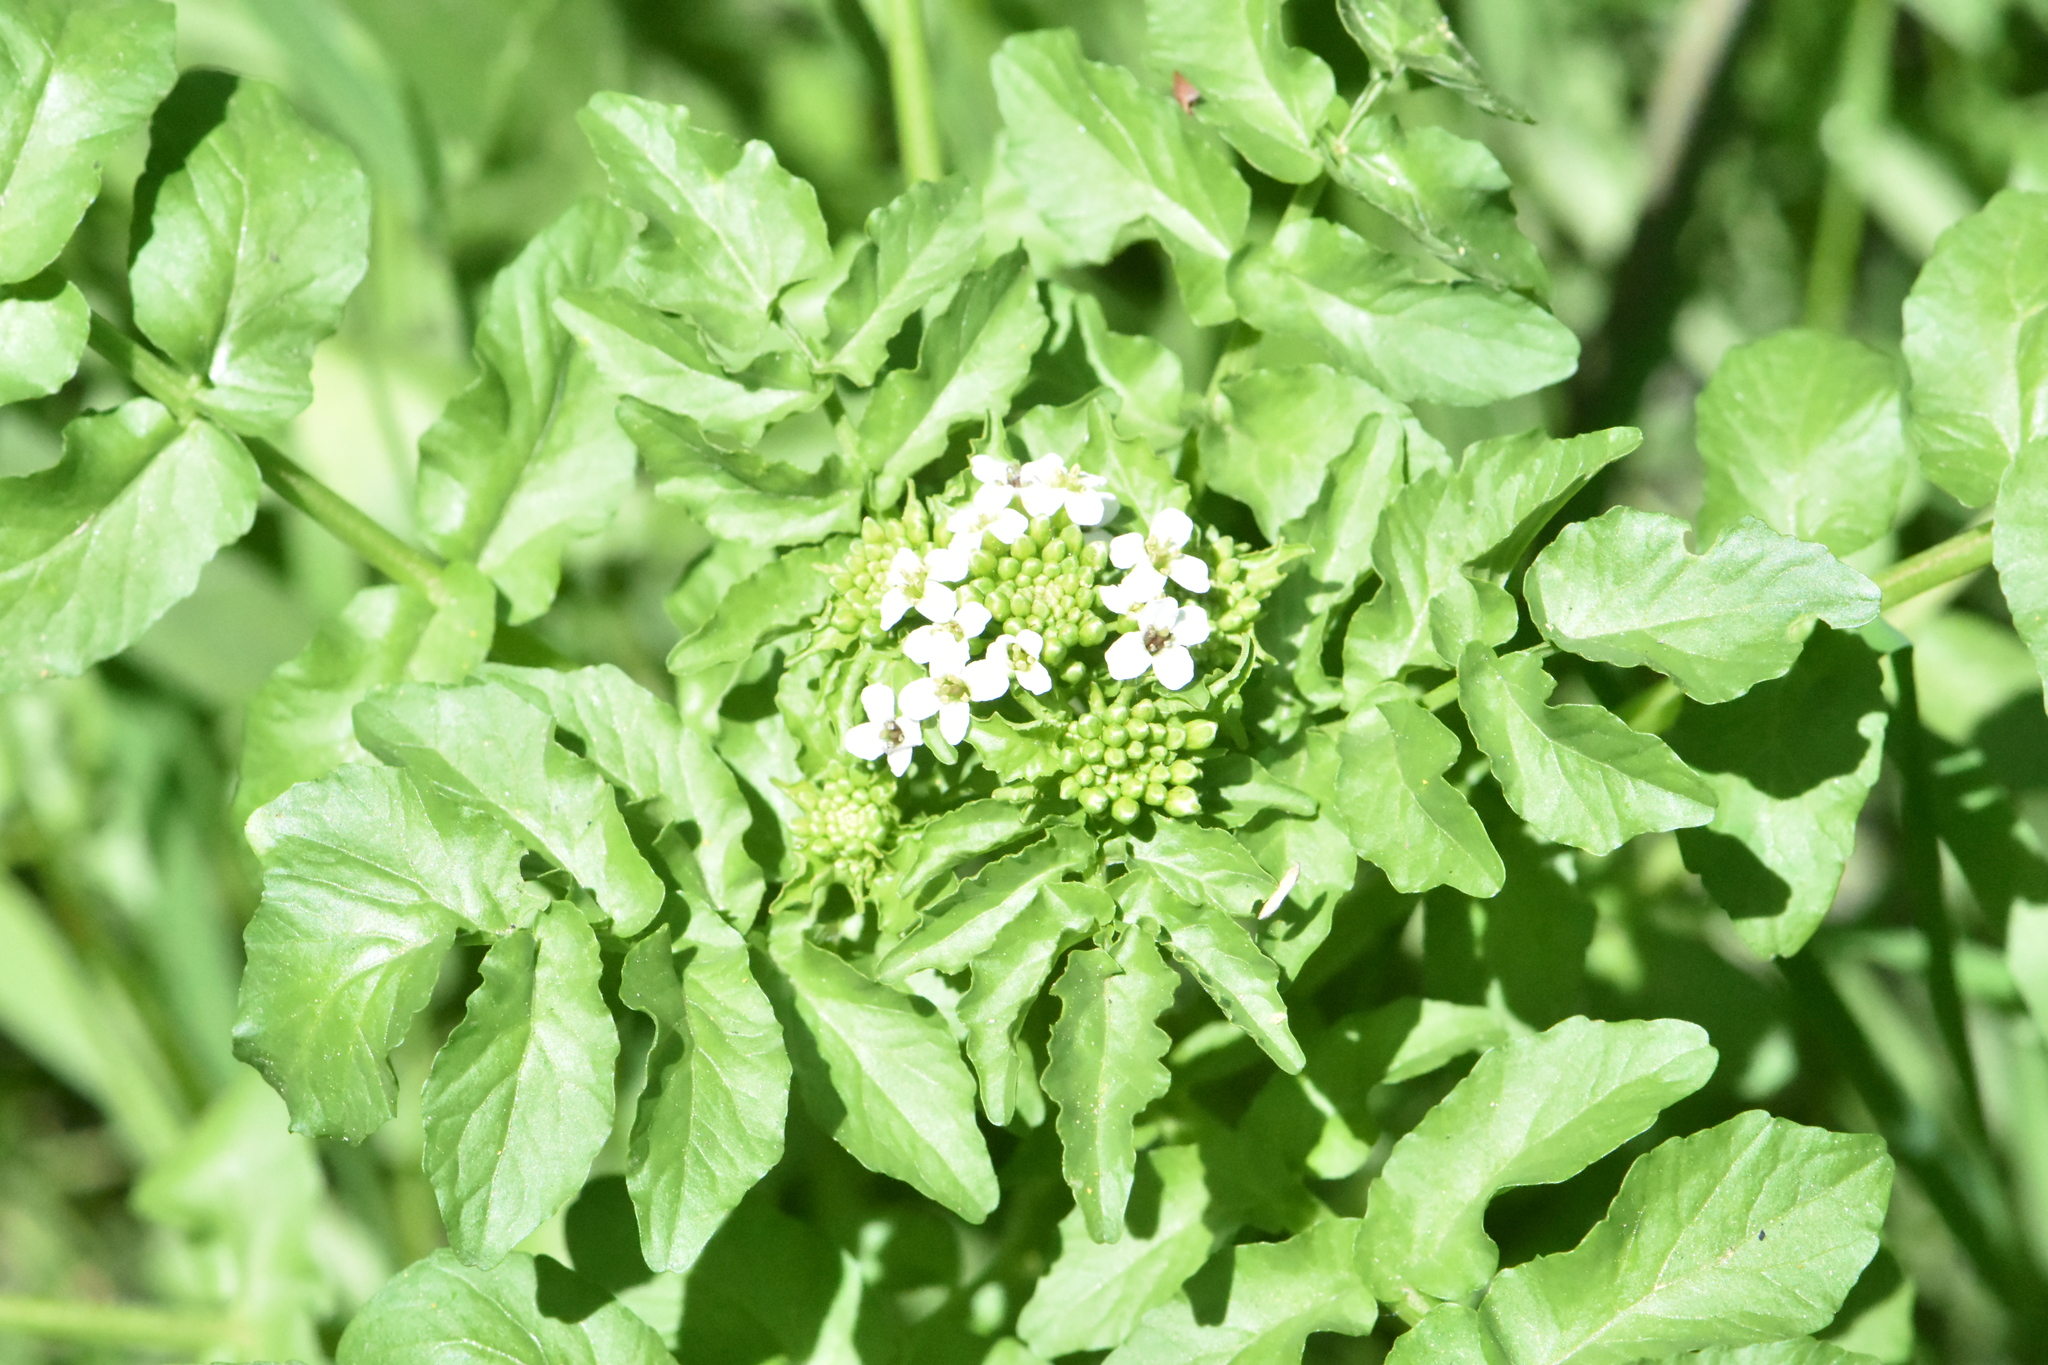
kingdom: Plantae
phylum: Tracheophyta
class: Magnoliopsida
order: Brassicales
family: Brassicaceae
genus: Nasturtium
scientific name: Nasturtium officinale
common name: Watercress
